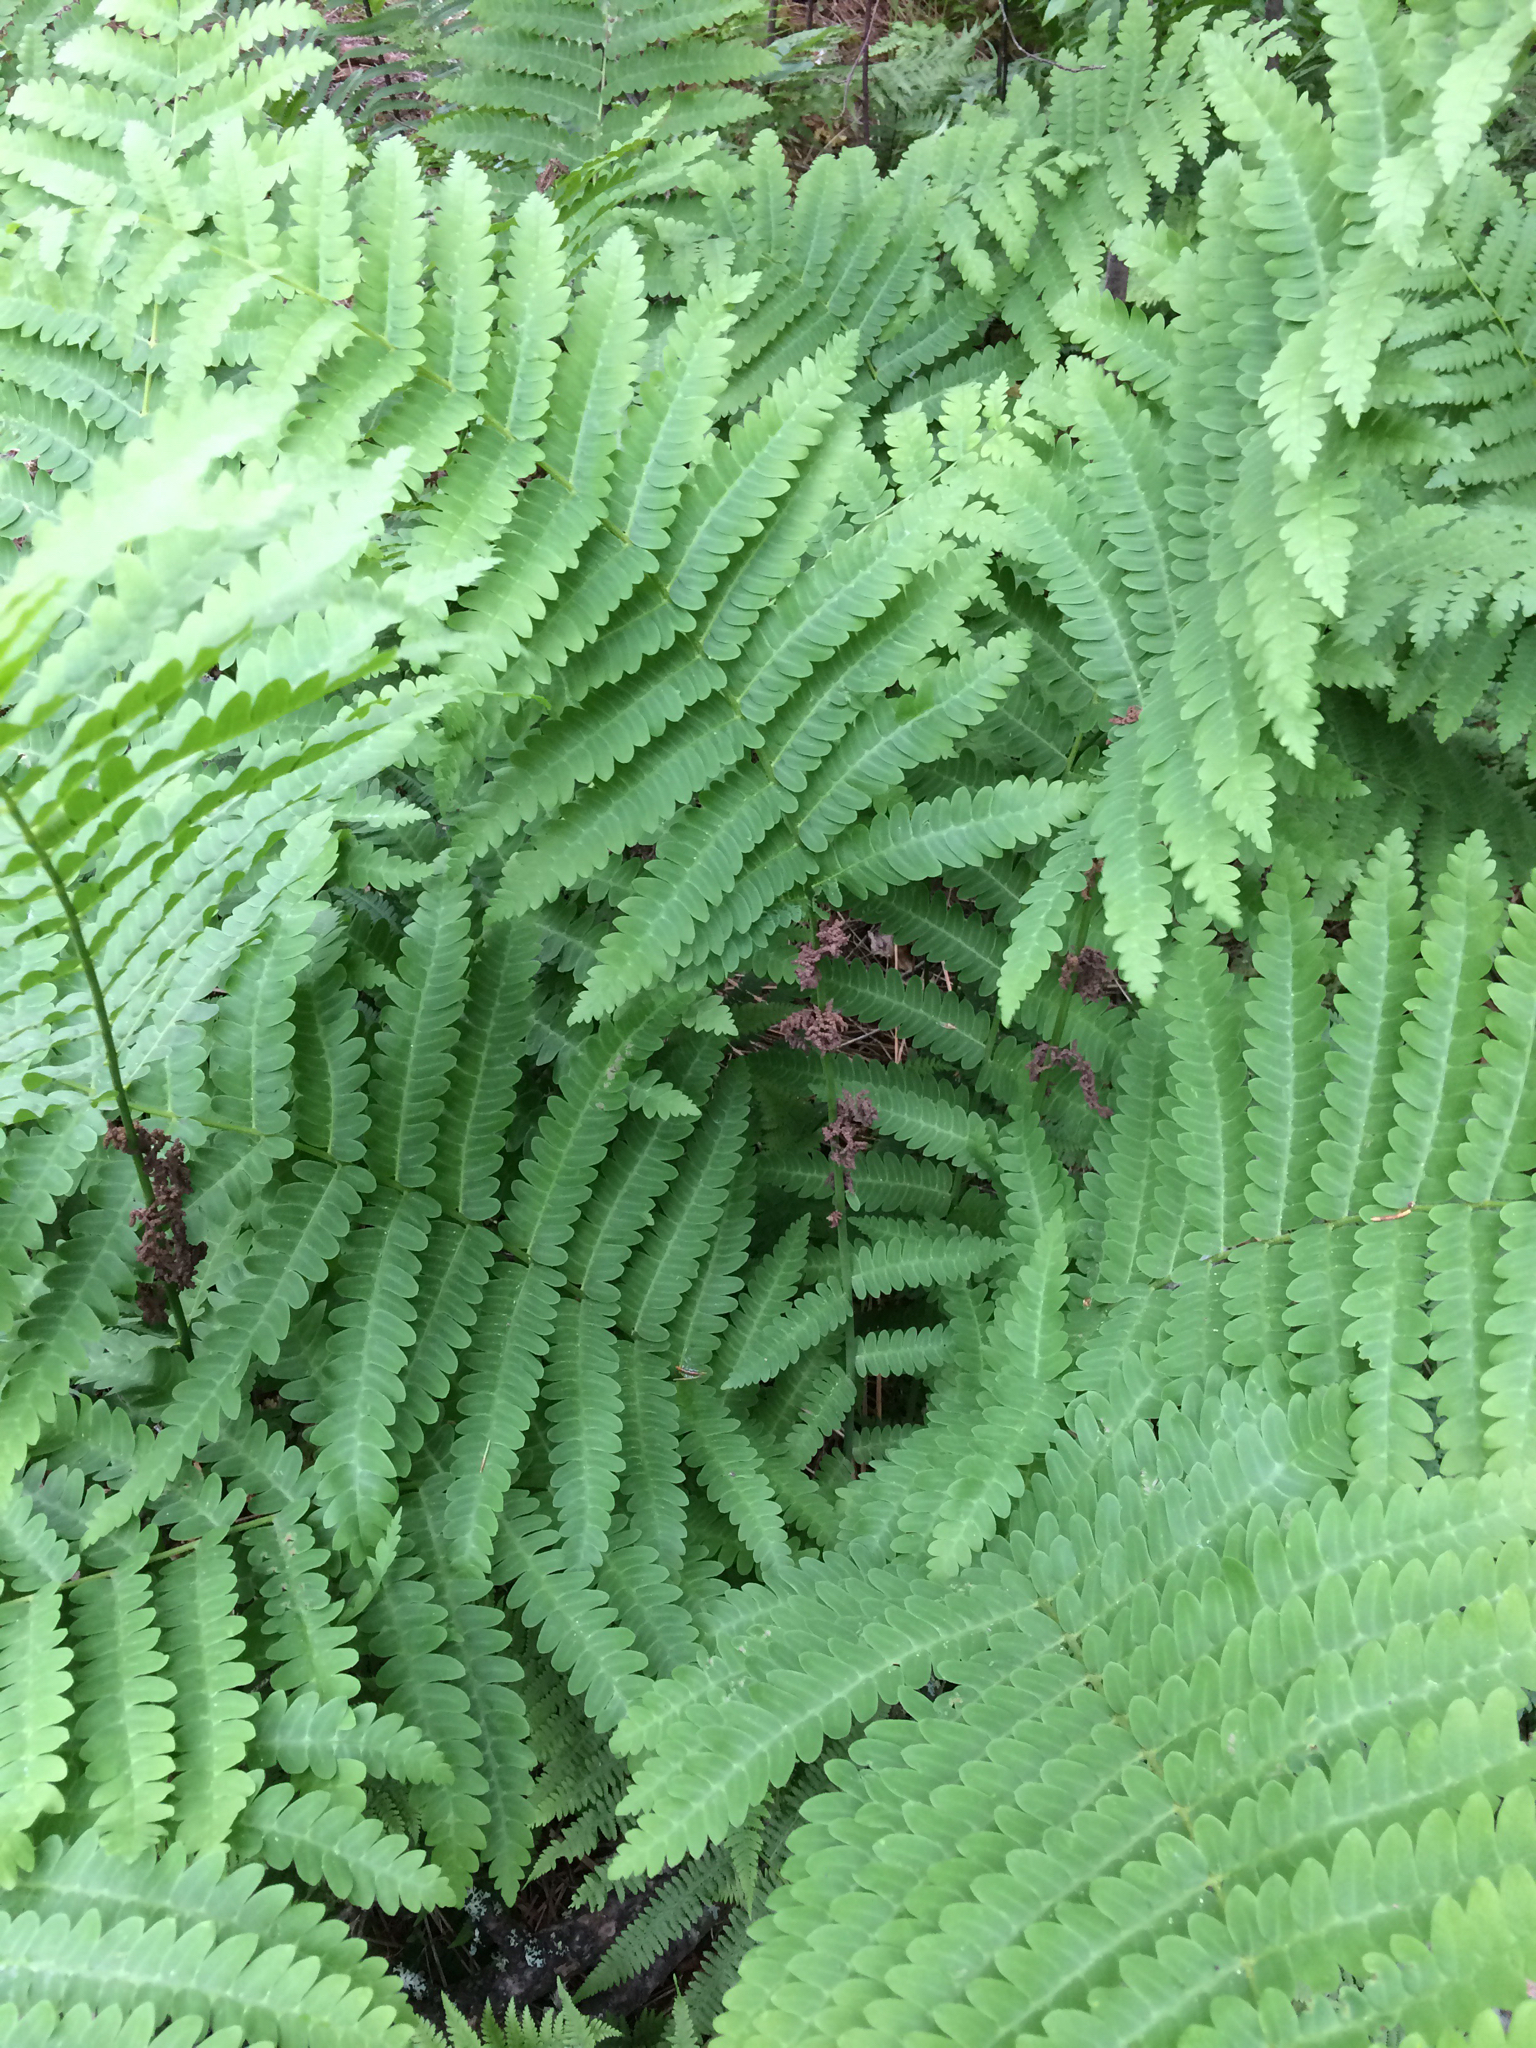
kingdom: Plantae
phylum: Tracheophyta
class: Polypodiopsida
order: Osmundales
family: Osmundaceae
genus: Claytosmunda
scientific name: Claytosmunda claytoniana
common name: Clayton's fern
